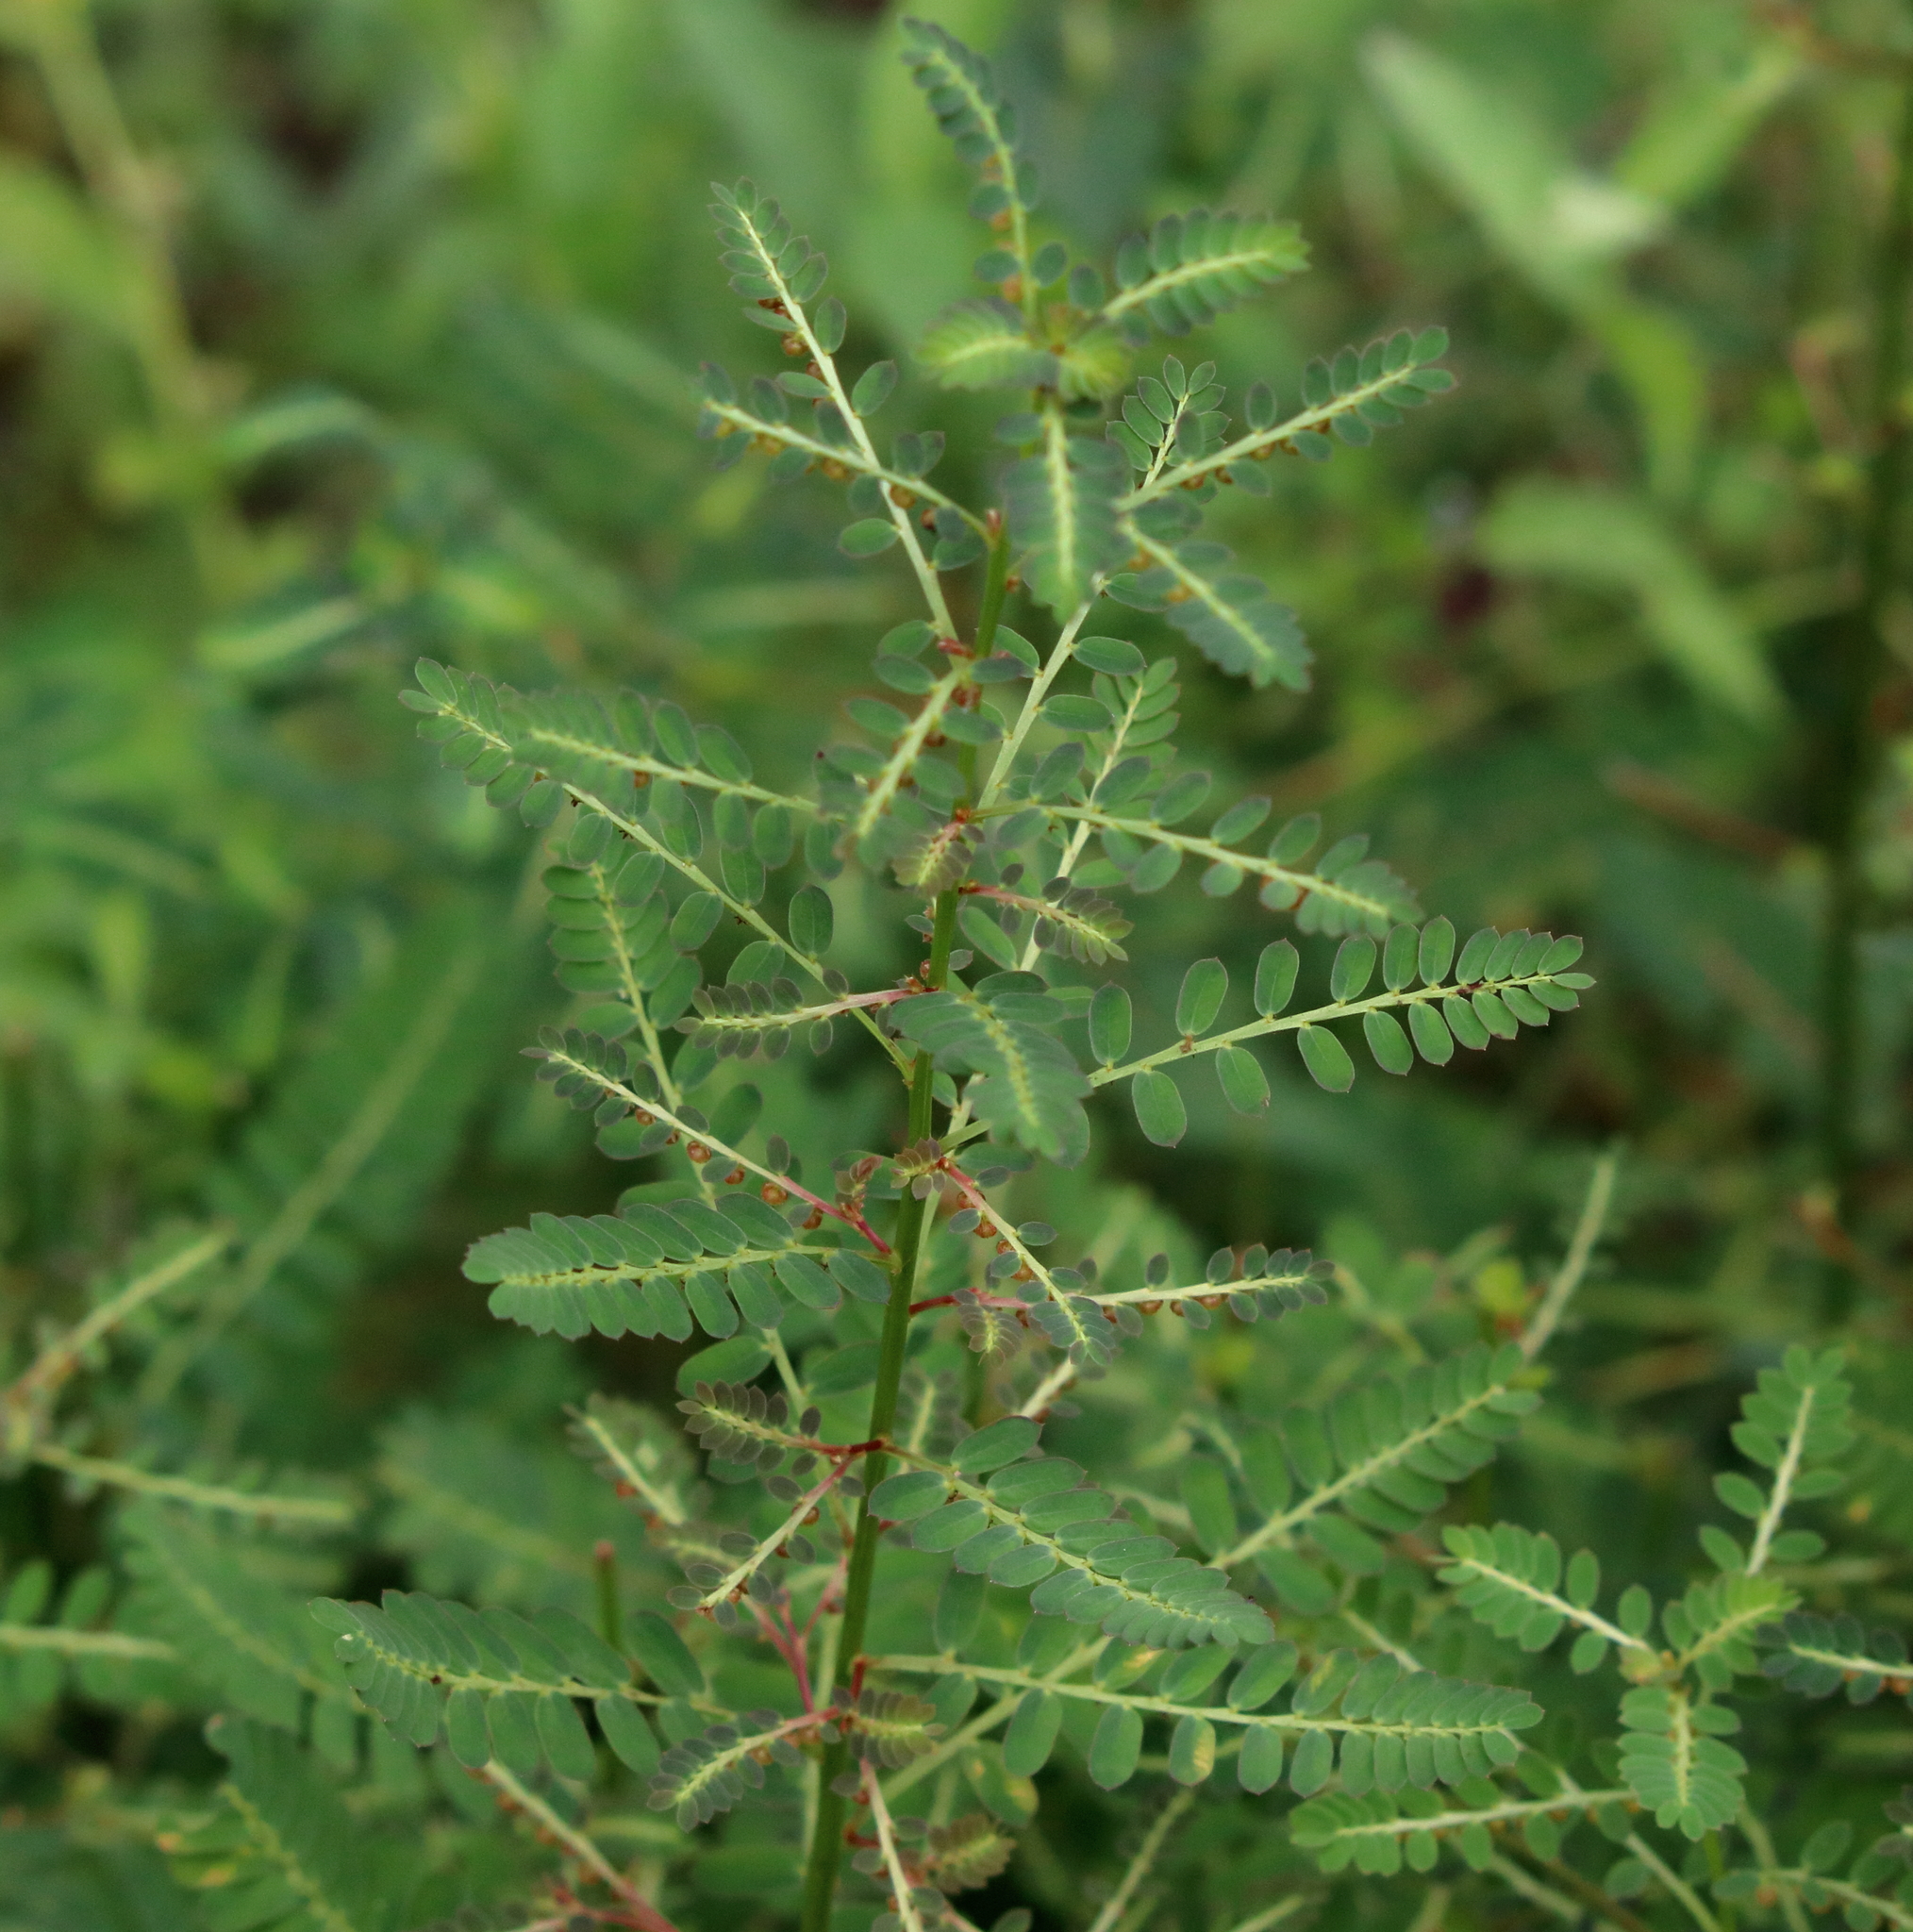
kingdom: Plantae
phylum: Tracheophyta
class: Magnoliopsida
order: Malpighiales
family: Phyllanthaceae
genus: Phyllanthus
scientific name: Phyllanthus urinaria
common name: Chamber bitter
